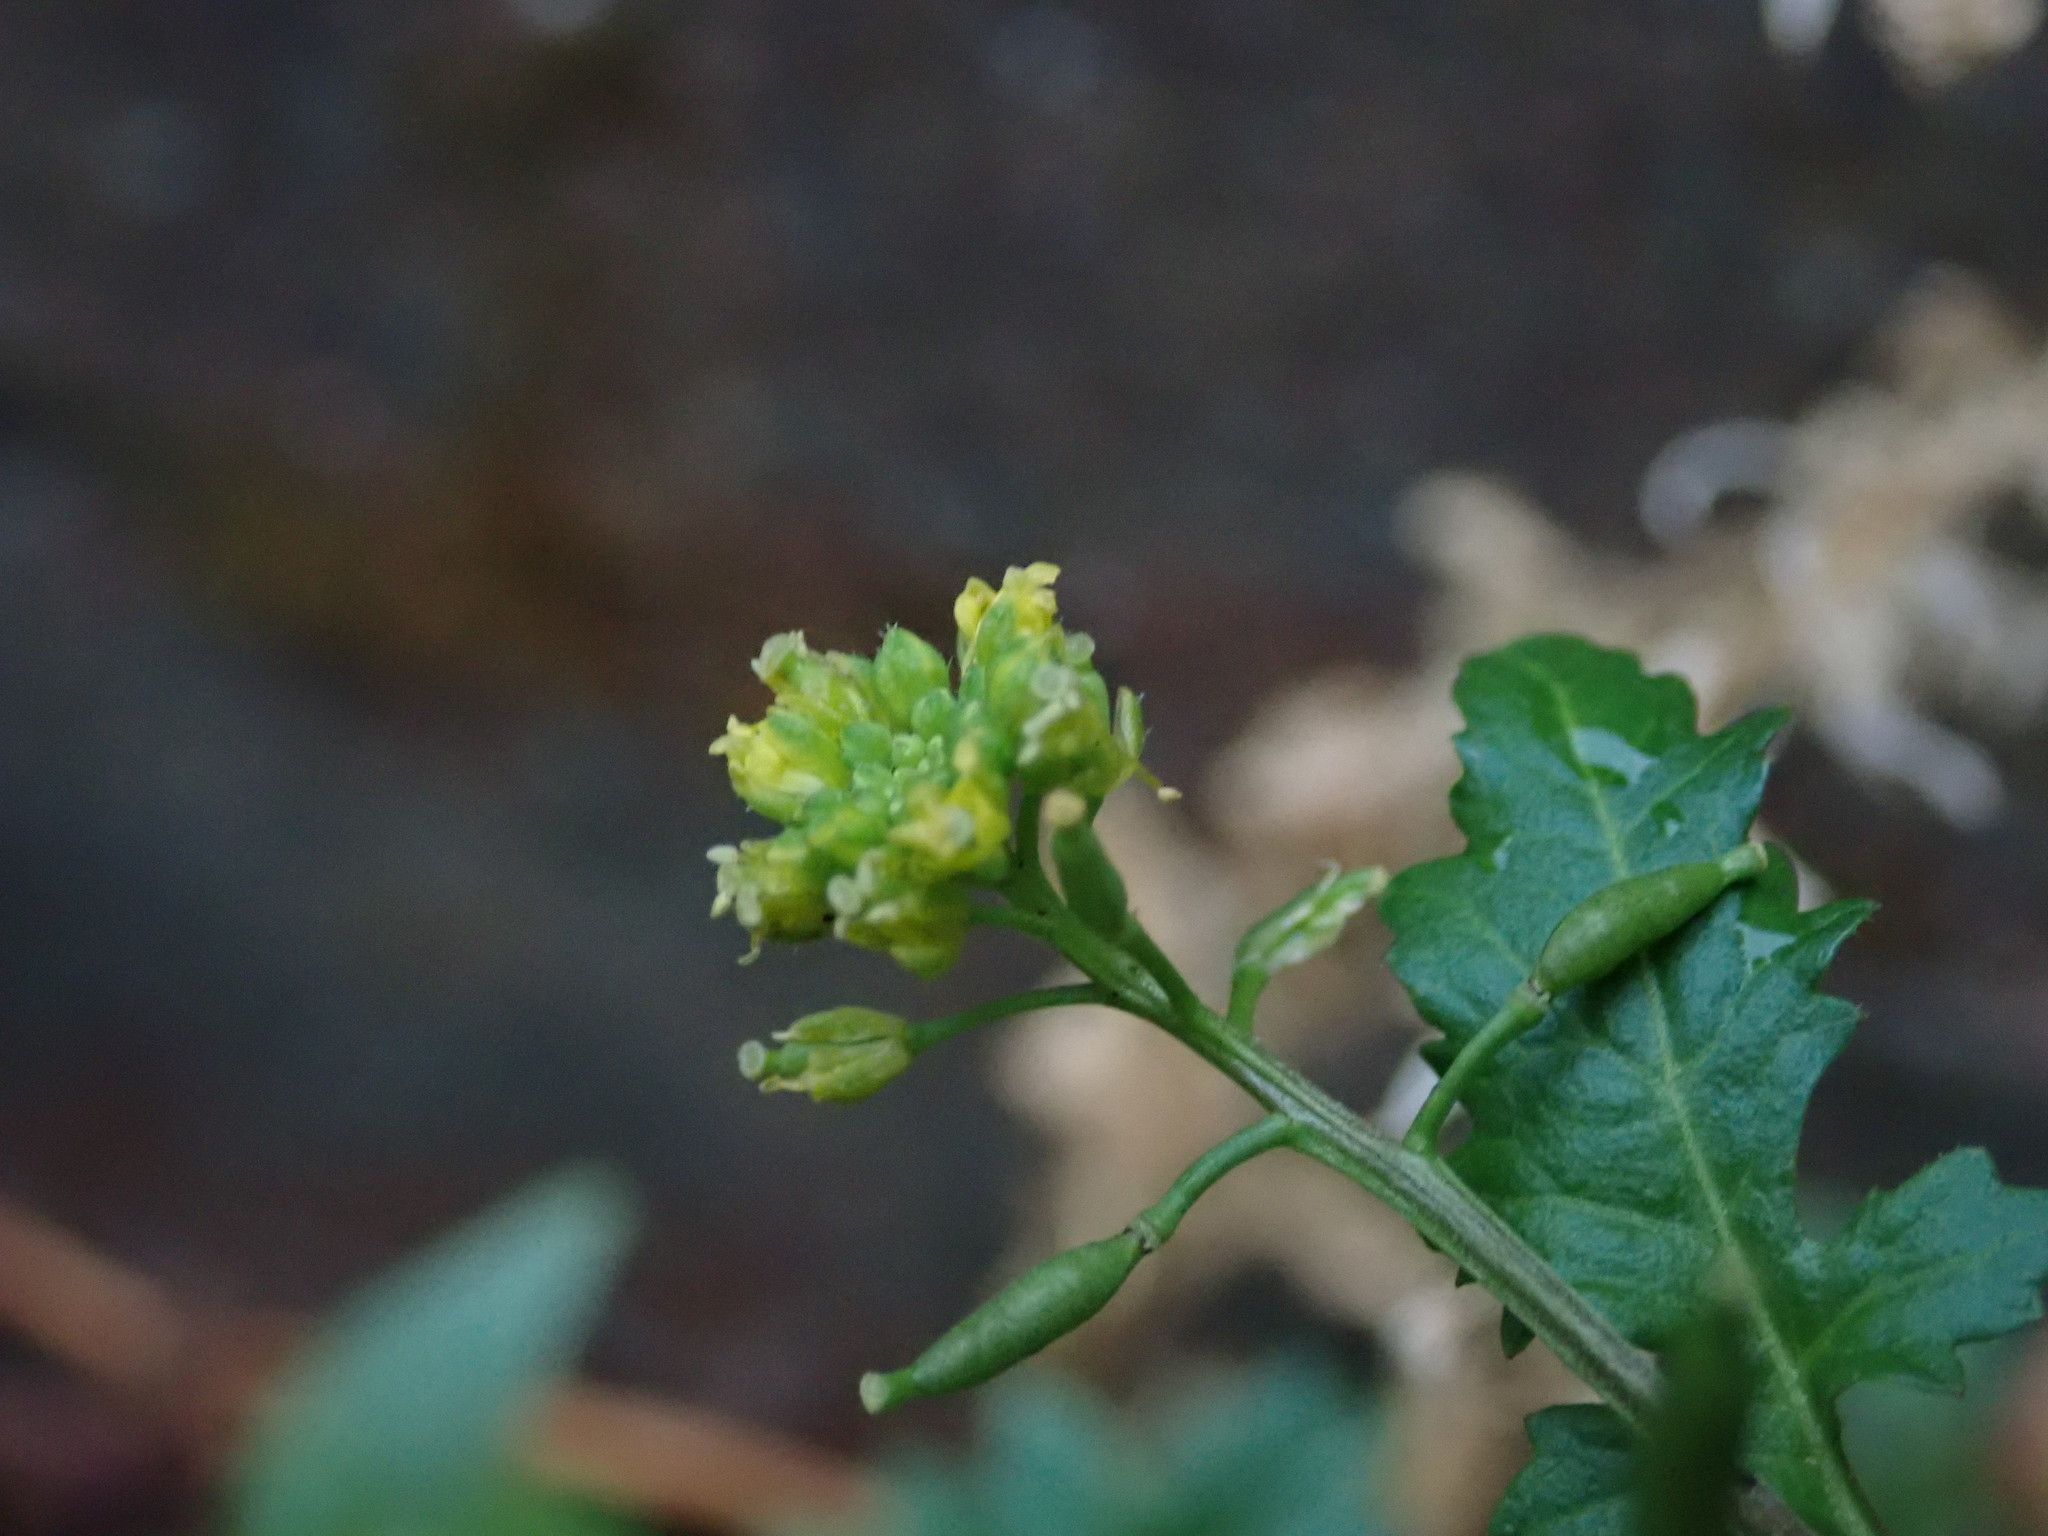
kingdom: Plantae
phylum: Tracheophyta
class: Magnoliopsida
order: Brassicales
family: Brassicaceae
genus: Rorippa
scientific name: Rorippa palustris
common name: Marsh yellow-cress
